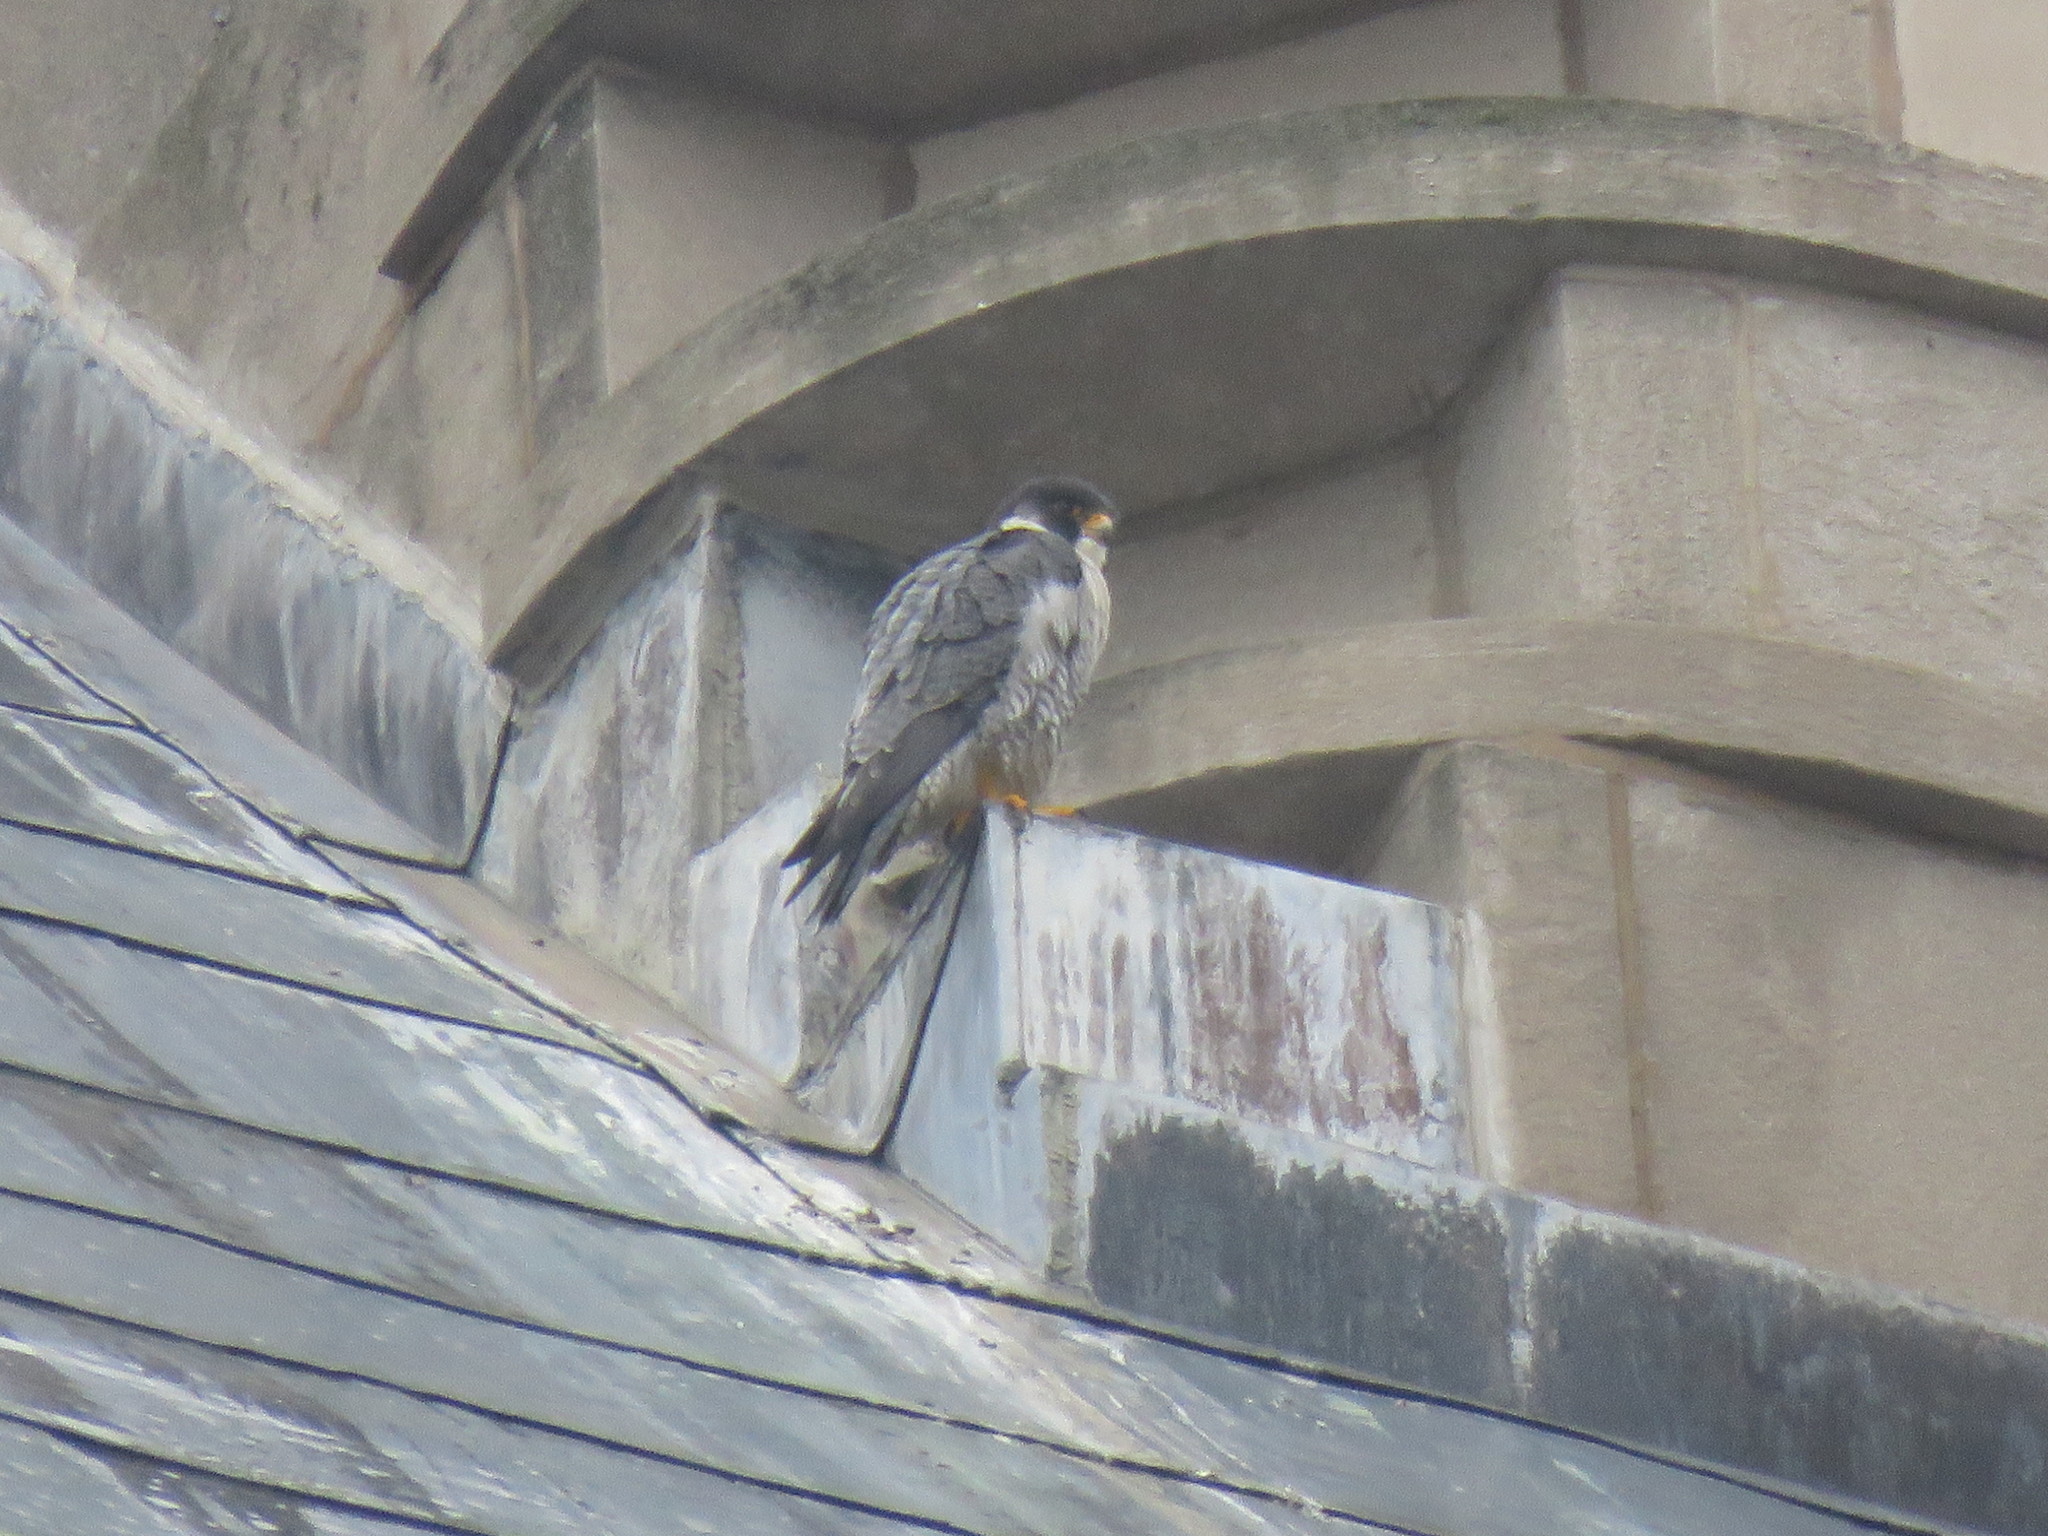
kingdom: Animalia
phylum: Chordata
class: Aves
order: Falconiformes
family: Falconidae
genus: Falco
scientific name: Falco peregrinus
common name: Peregrine falcon
